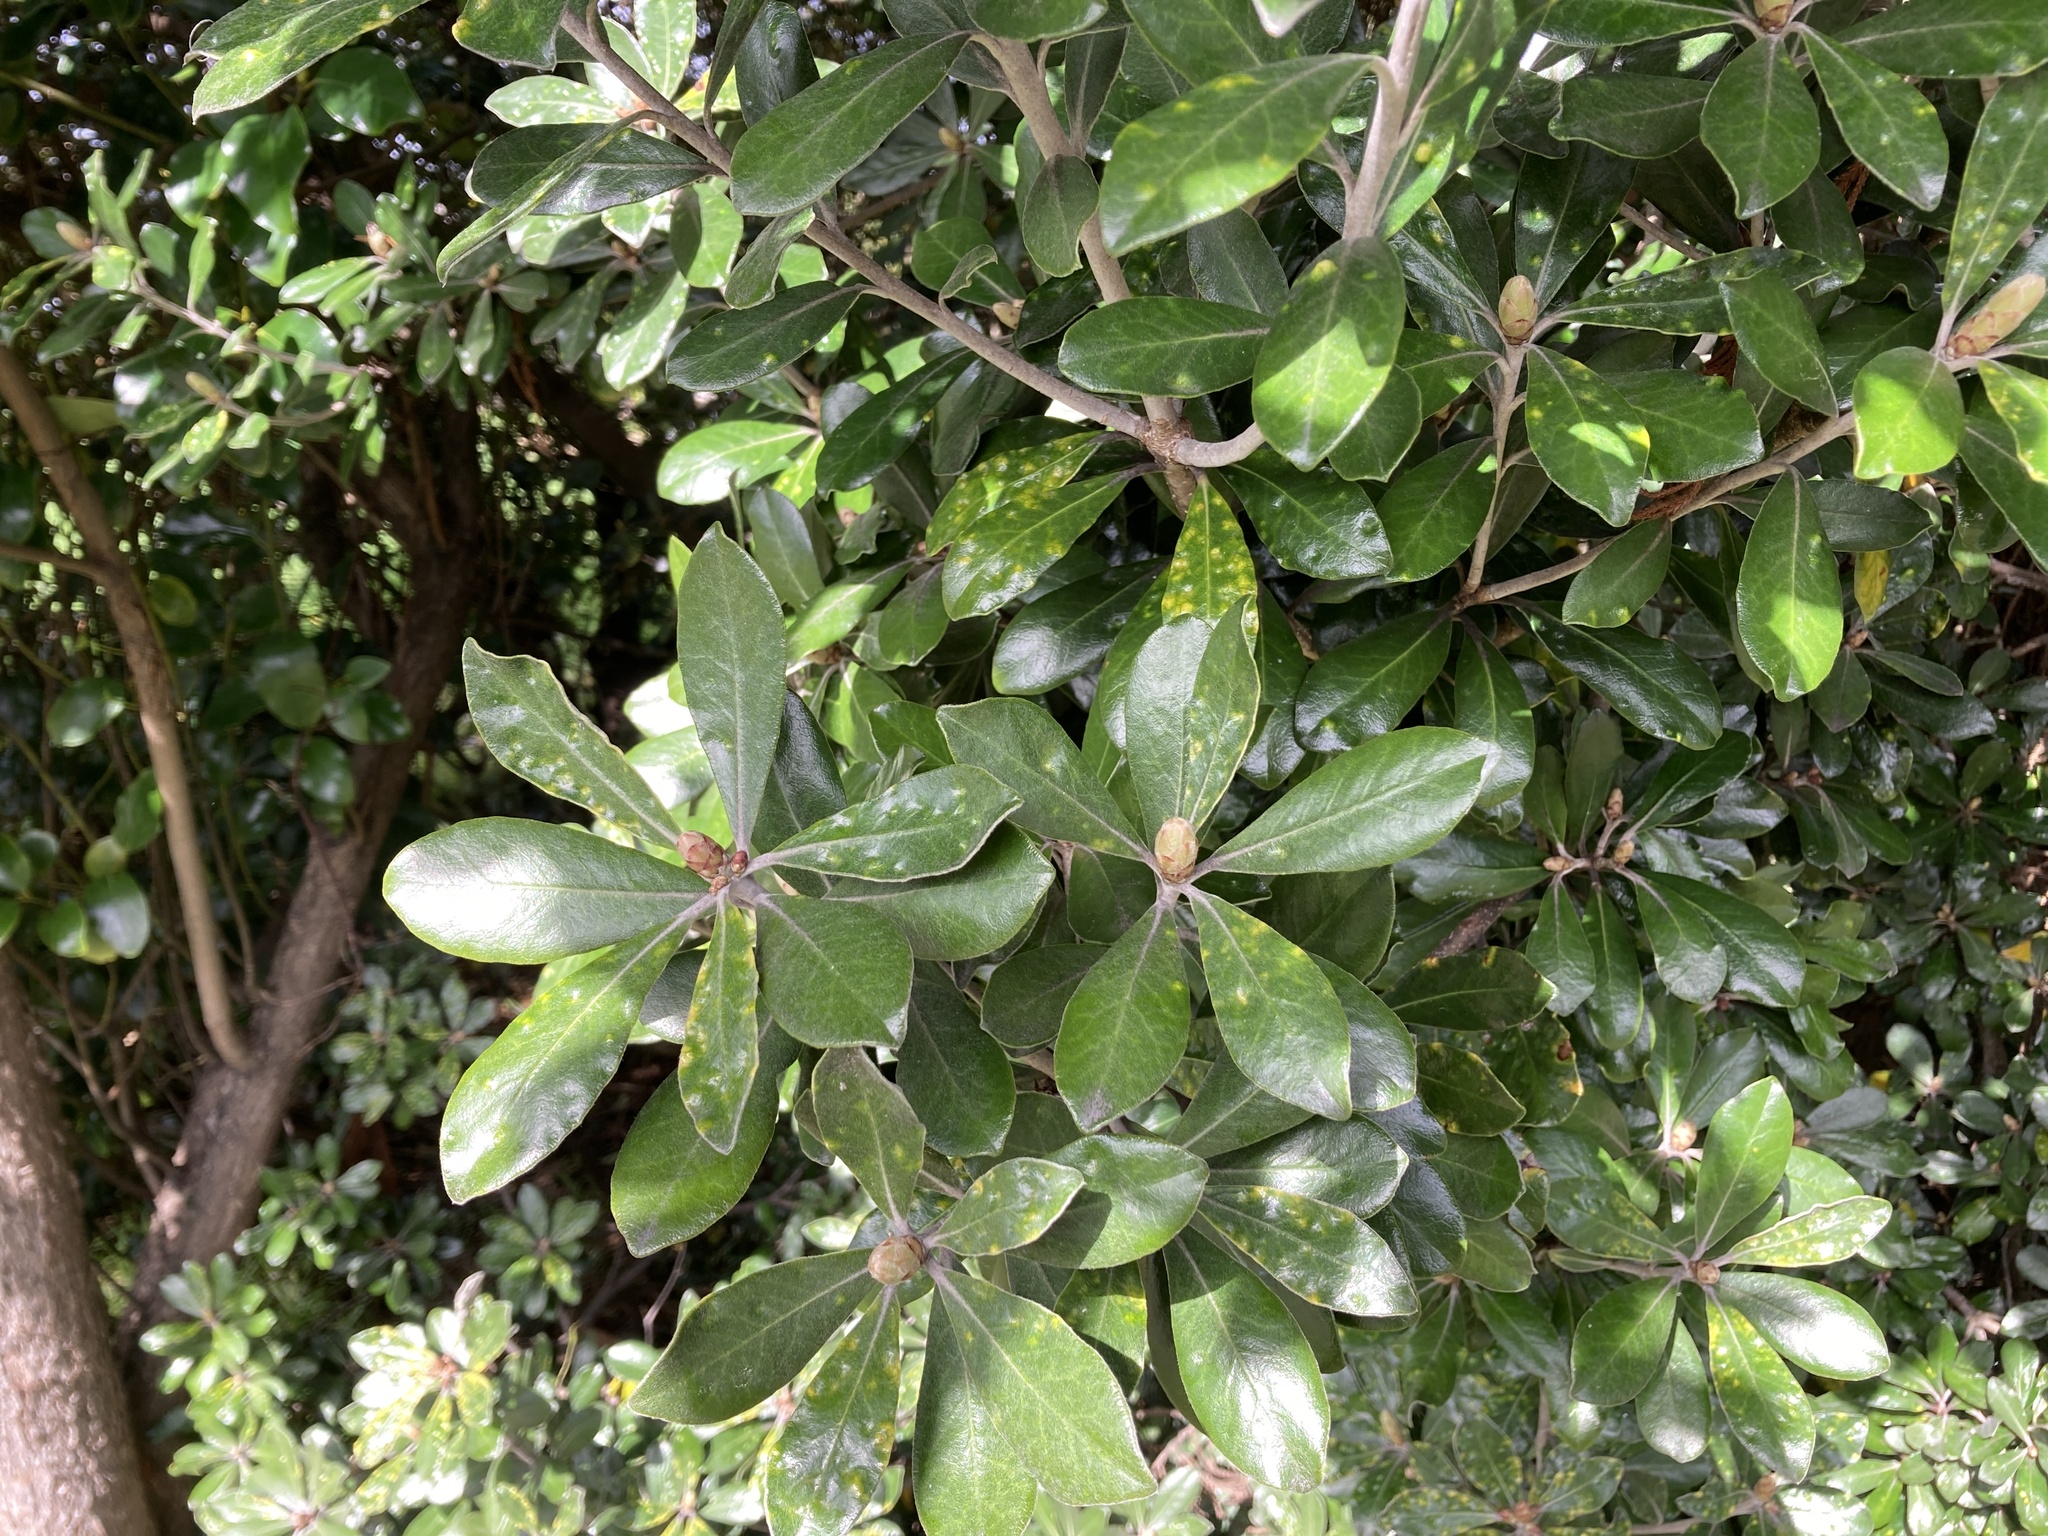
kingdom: Plantae
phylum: Tracheophyta
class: Magnoliopsida
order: Apiales
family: Pittosporaceae
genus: Pittosporum
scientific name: Pittosporum crassifolium
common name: Karo
